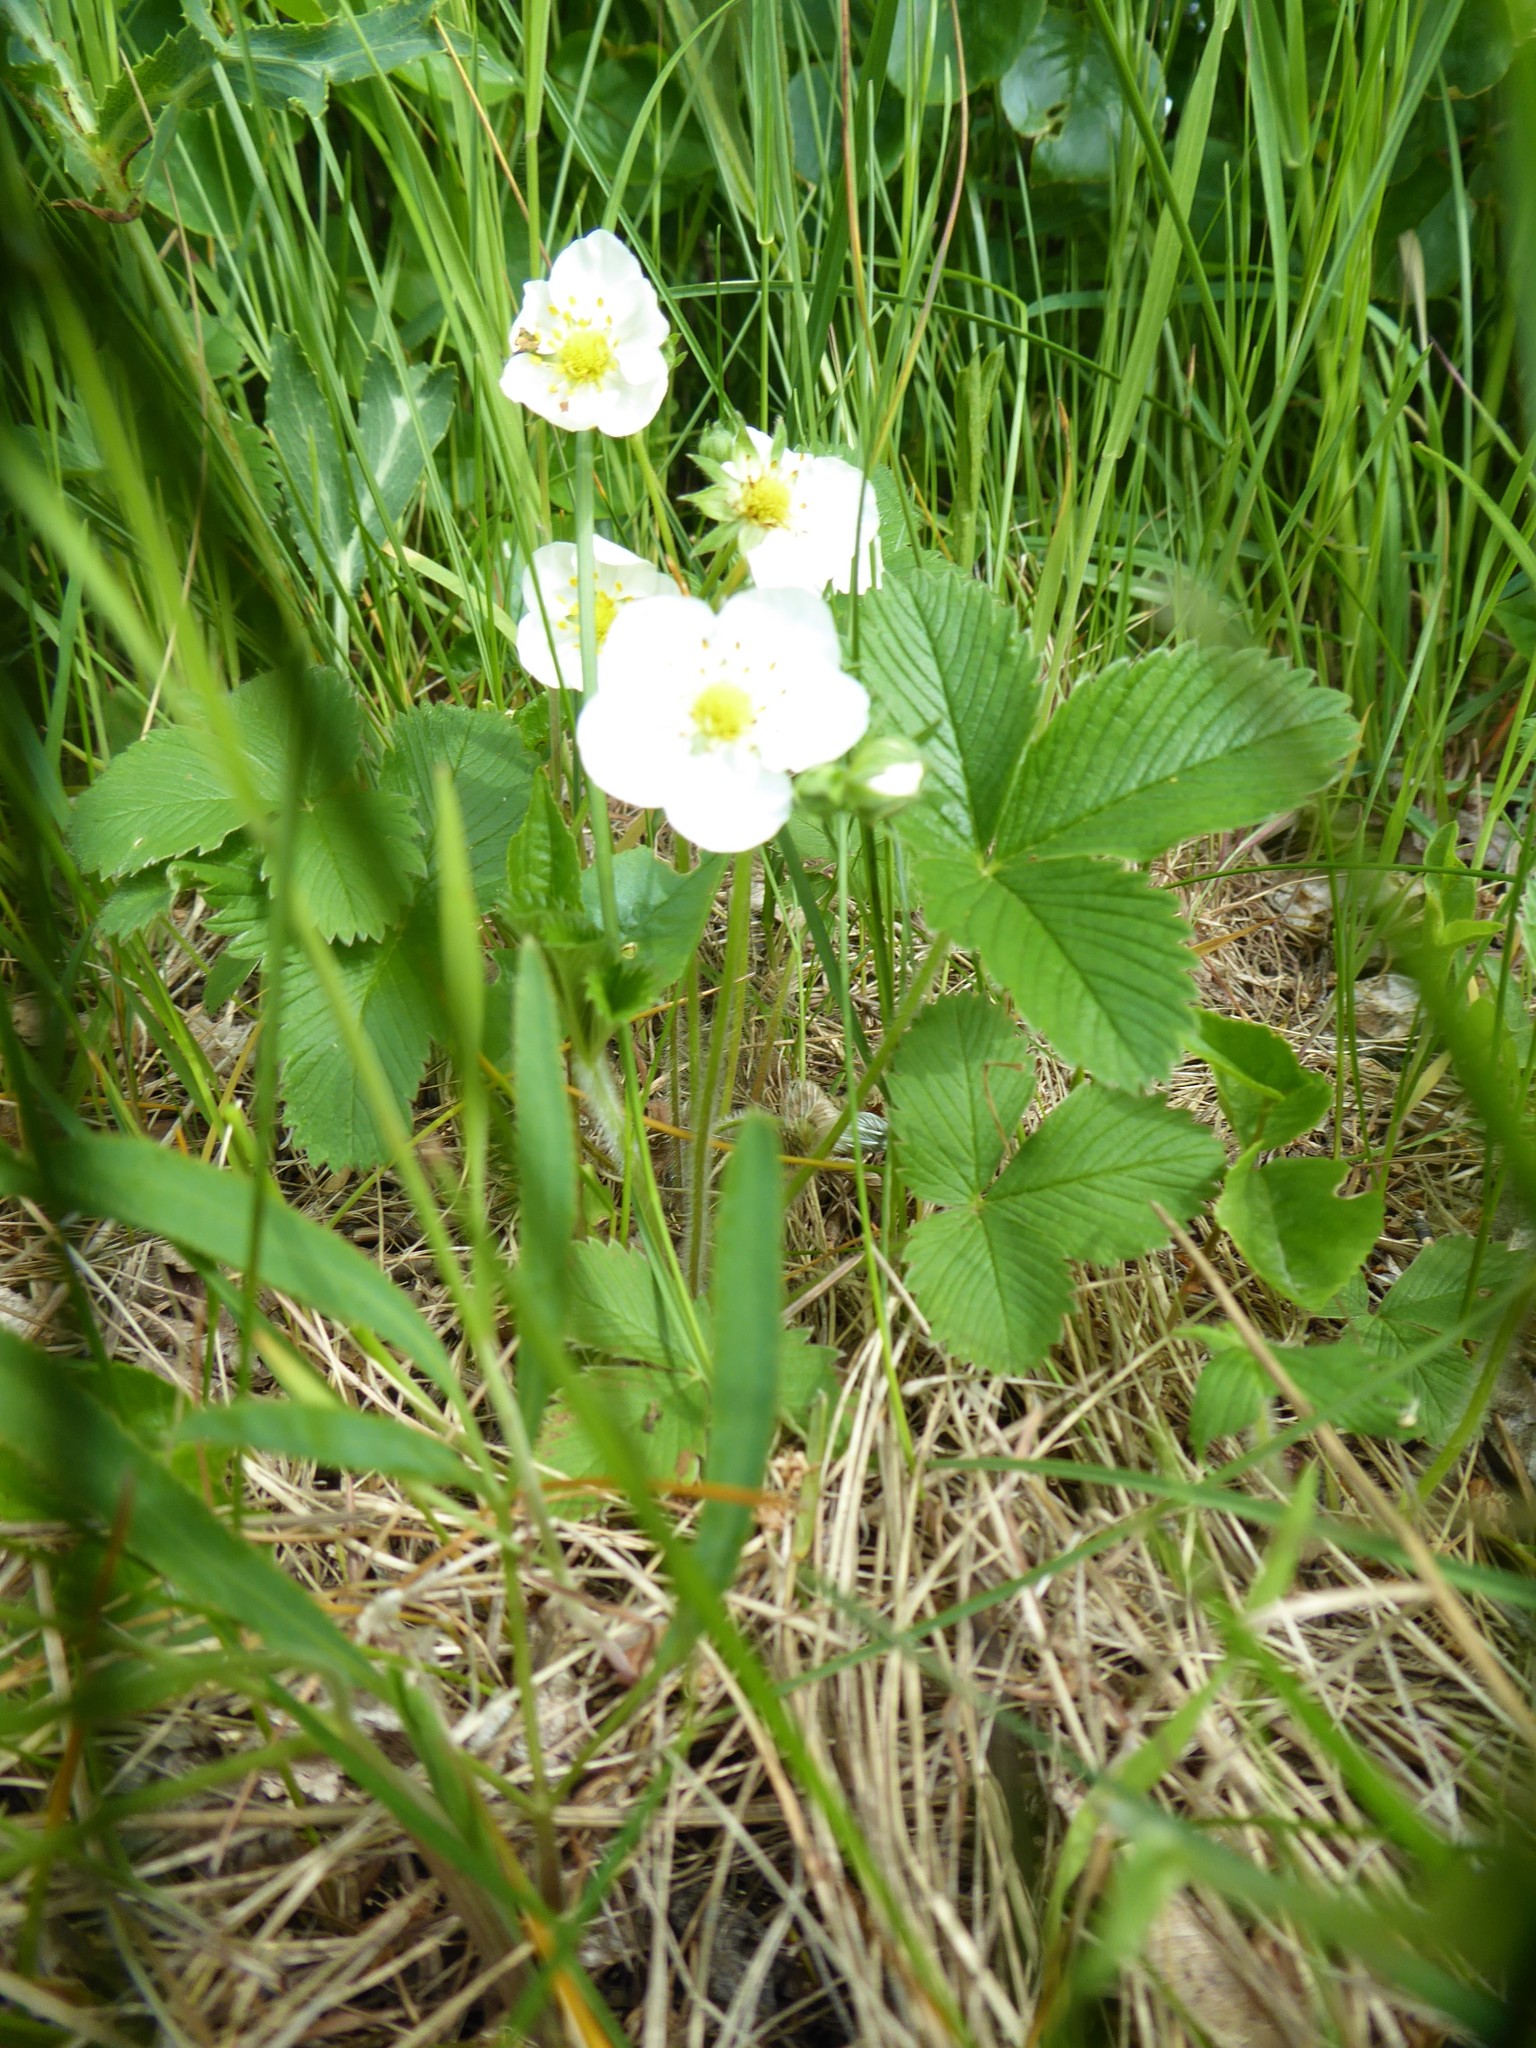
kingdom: Plantae
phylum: Tracheophyta
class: Magnoliopsida
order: Rosales
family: Rosaceae
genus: Fragaria
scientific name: Fragaria viridis
